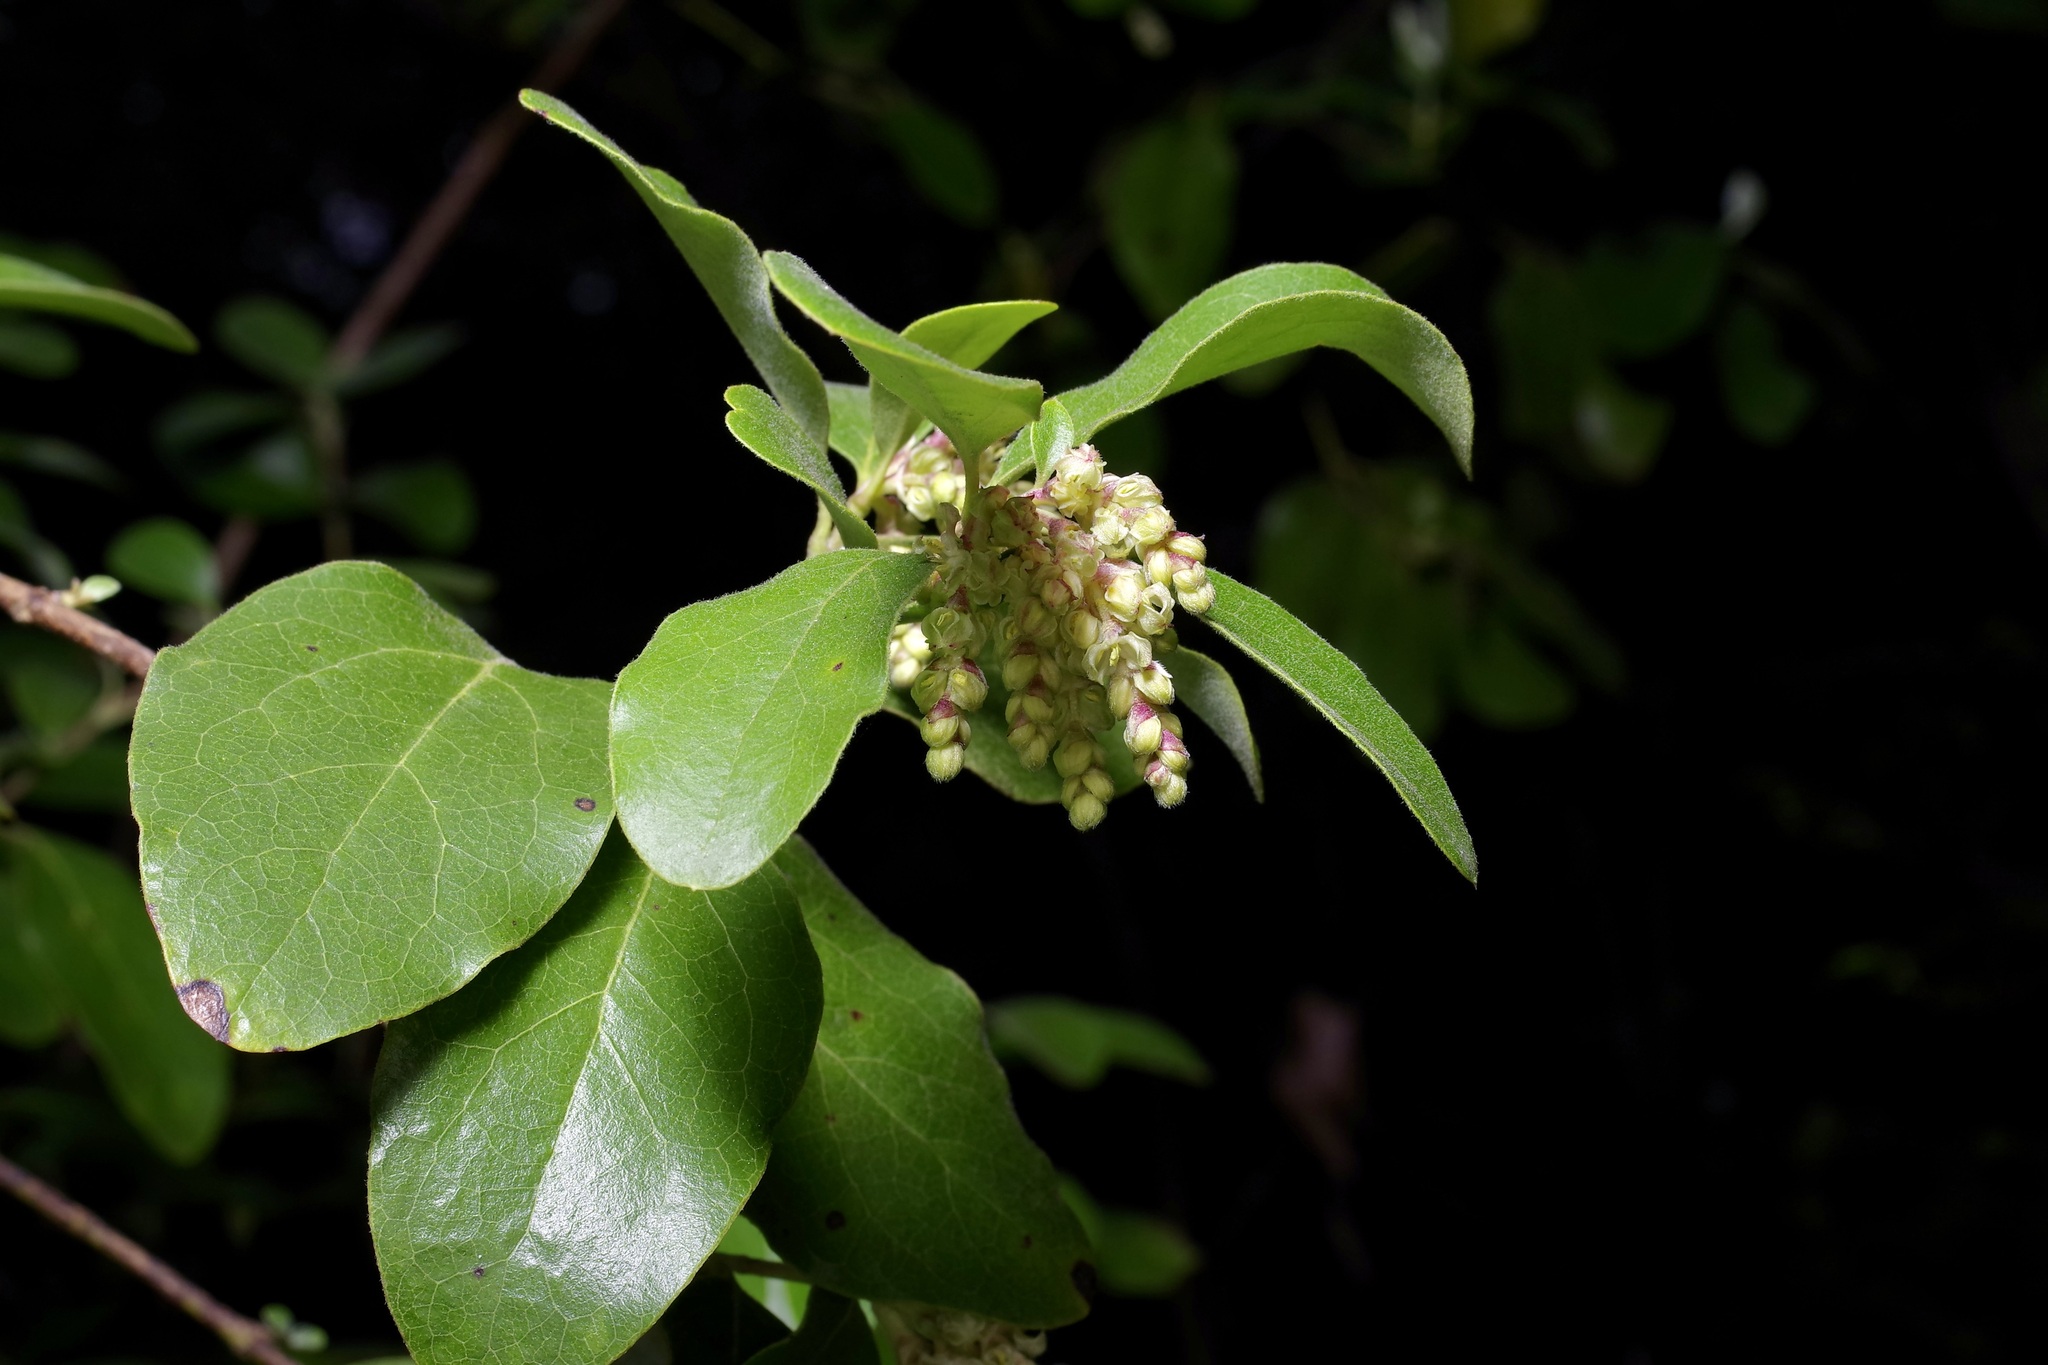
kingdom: Plantae
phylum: Tracheophyta
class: Magnoliopsida
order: Garryales
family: Garryaceae
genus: Garrya
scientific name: Garrya lindheimeri
